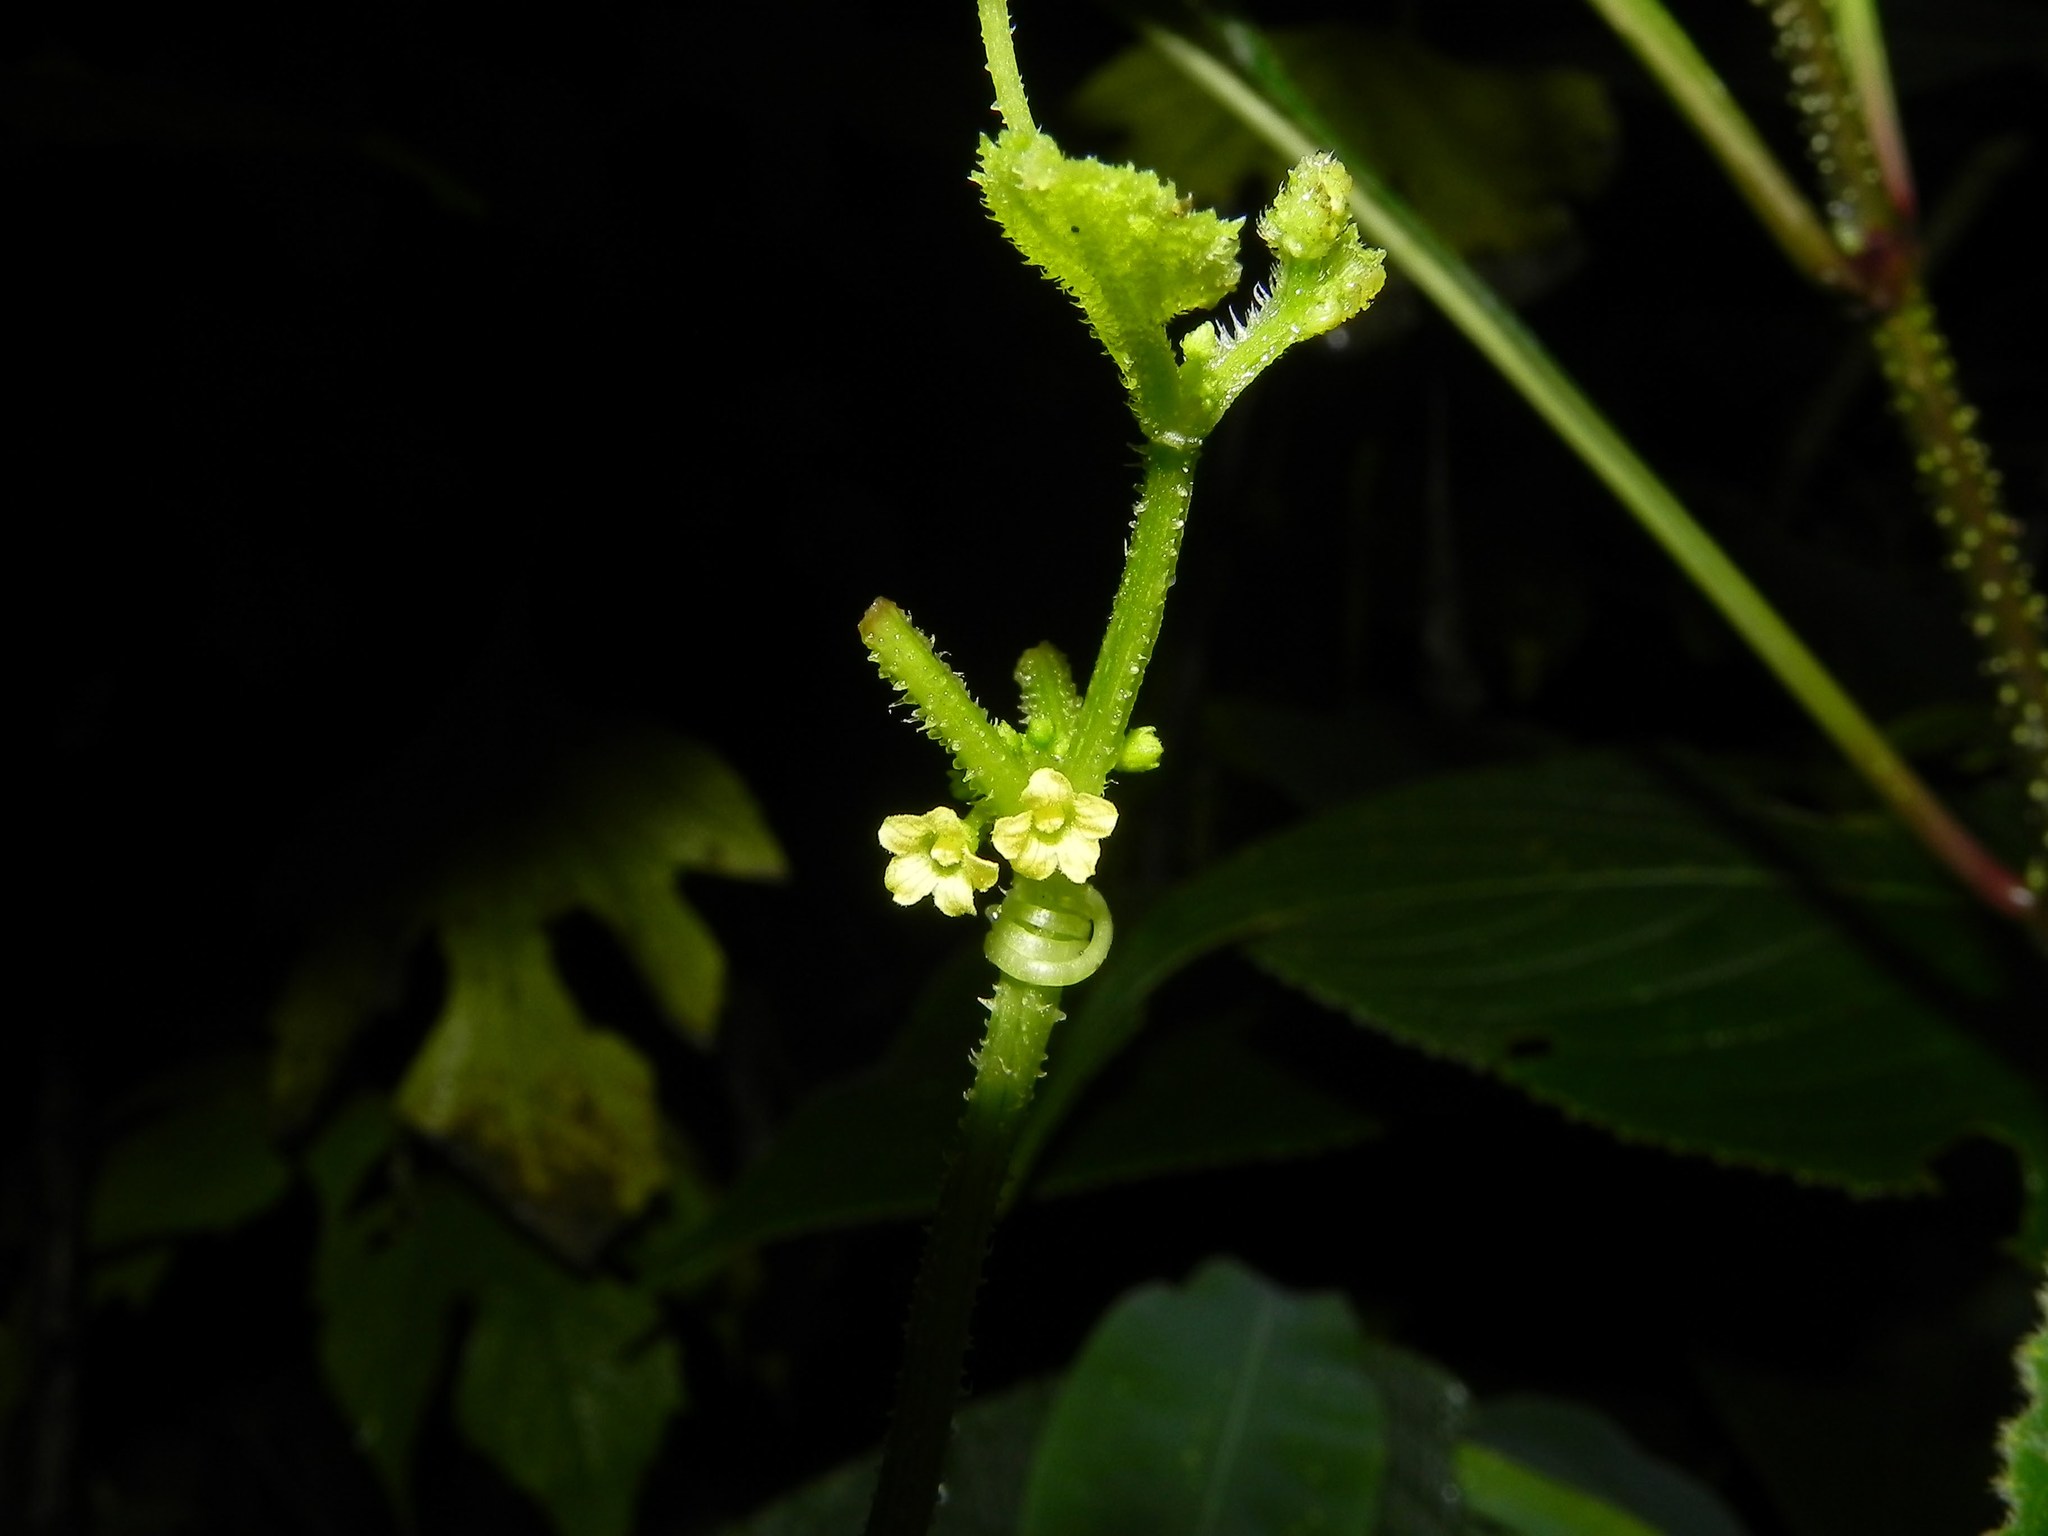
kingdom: Plantae
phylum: Tracheophyta
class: Magnoliopsida
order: Cucurbitales
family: Cucurbitaceae
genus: Cucumis
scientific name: Cucumis ritchiei
